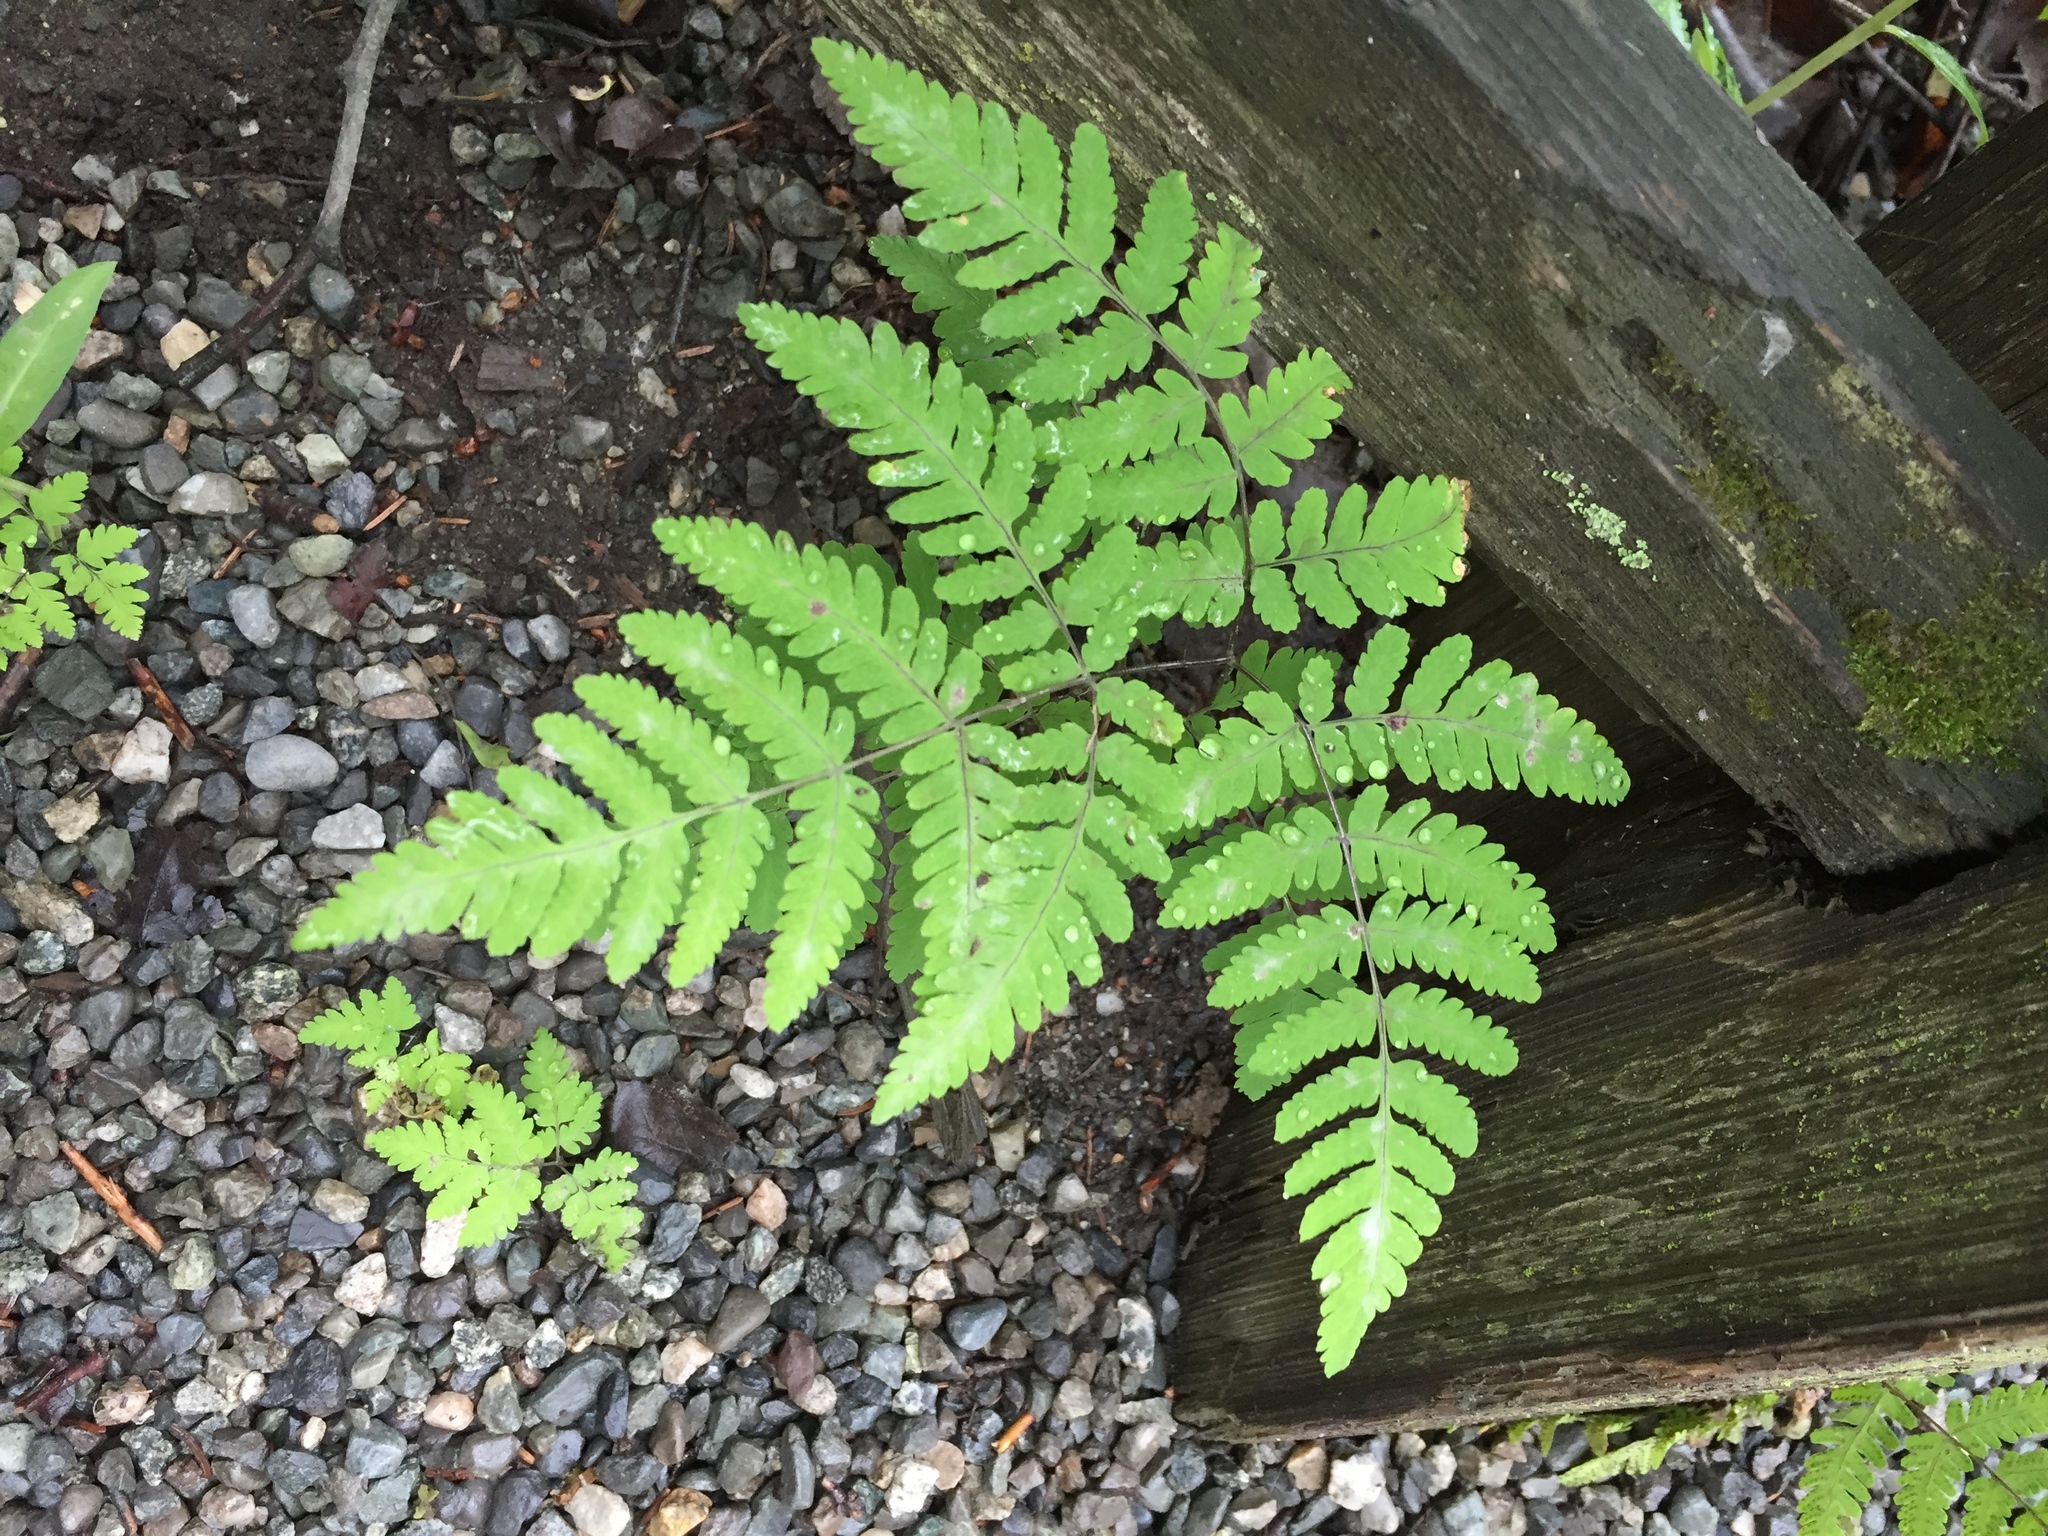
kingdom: Plantae
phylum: Tracheophyta
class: Polypodiopsida
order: Polypodiales
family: Cystopteridaceae
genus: Gymnocarpium
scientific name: Gymnocarpium dryopteris
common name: Oak fern
